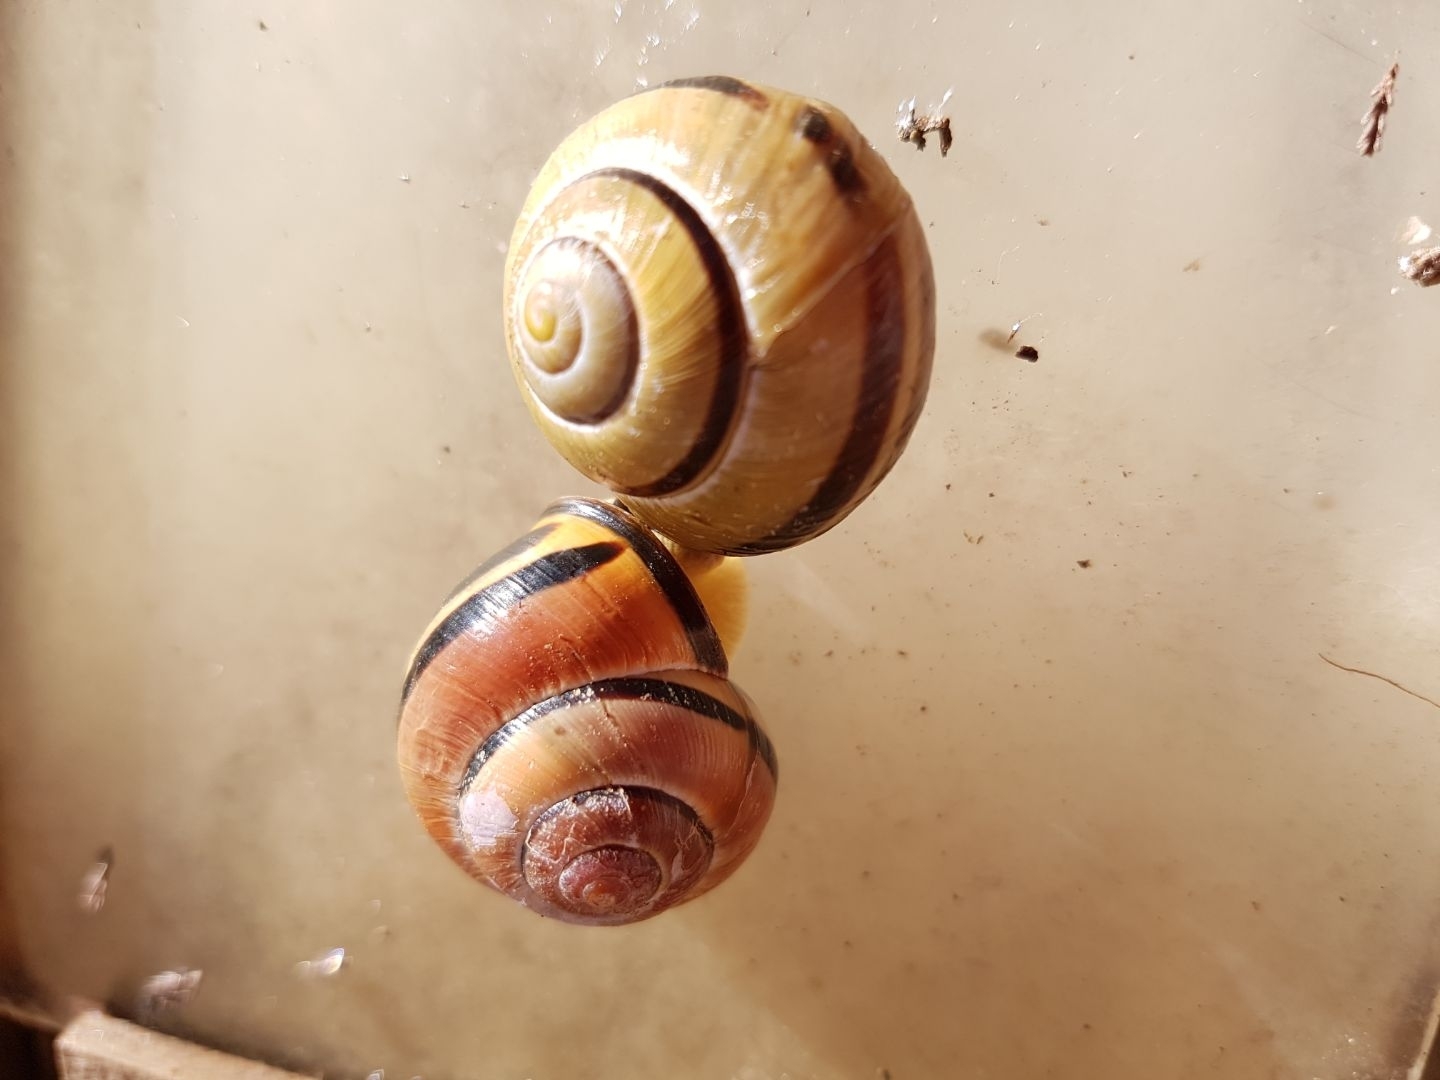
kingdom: Animalia
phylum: Mollusca
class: Gastropoda
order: Stylommatophora
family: Helicidae
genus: Cepaea
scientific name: Cepaea nemoralis
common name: Grovesnail
